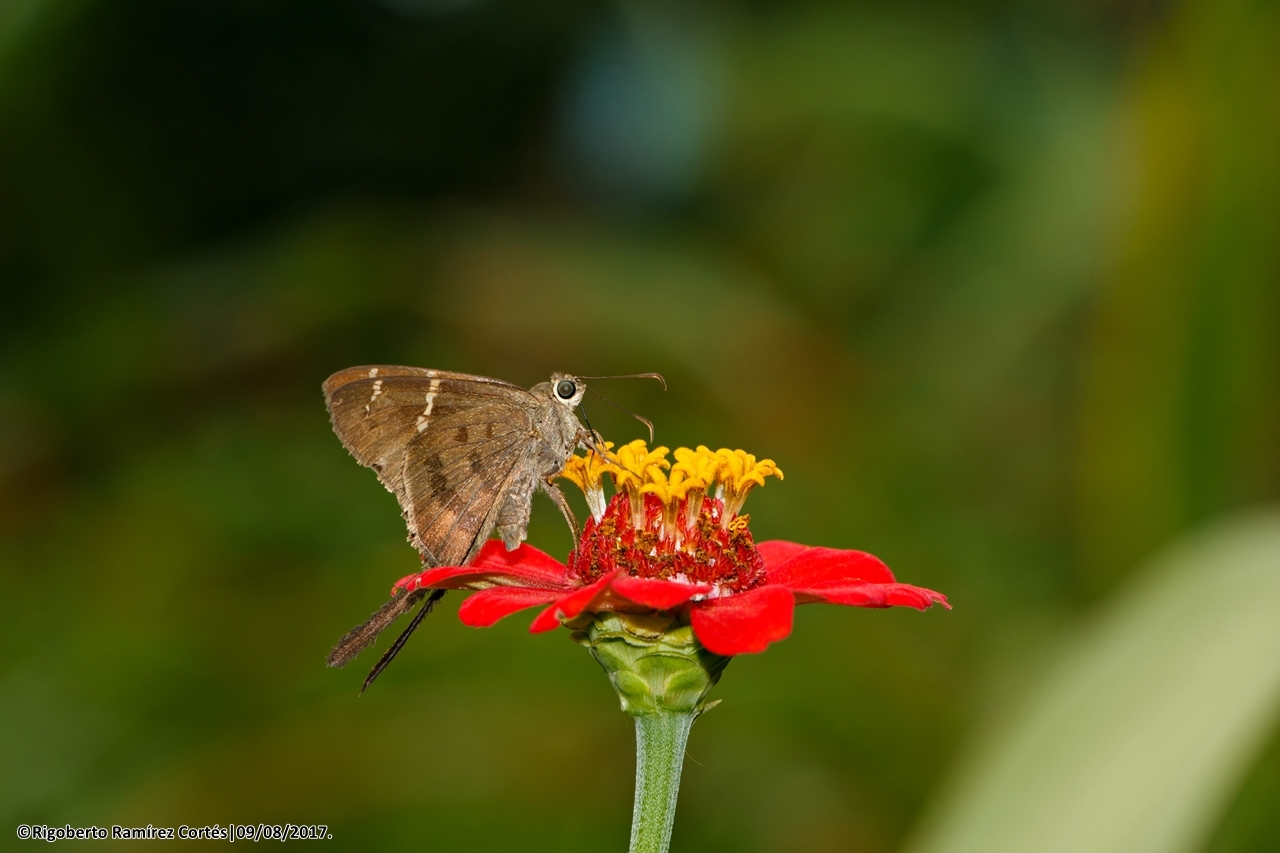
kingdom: Animalia
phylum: Arthropoda
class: Insecta
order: Lepidoptera
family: Hesperiidae
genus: Urbanus
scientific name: Urbanus procne
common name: Brown longtail
